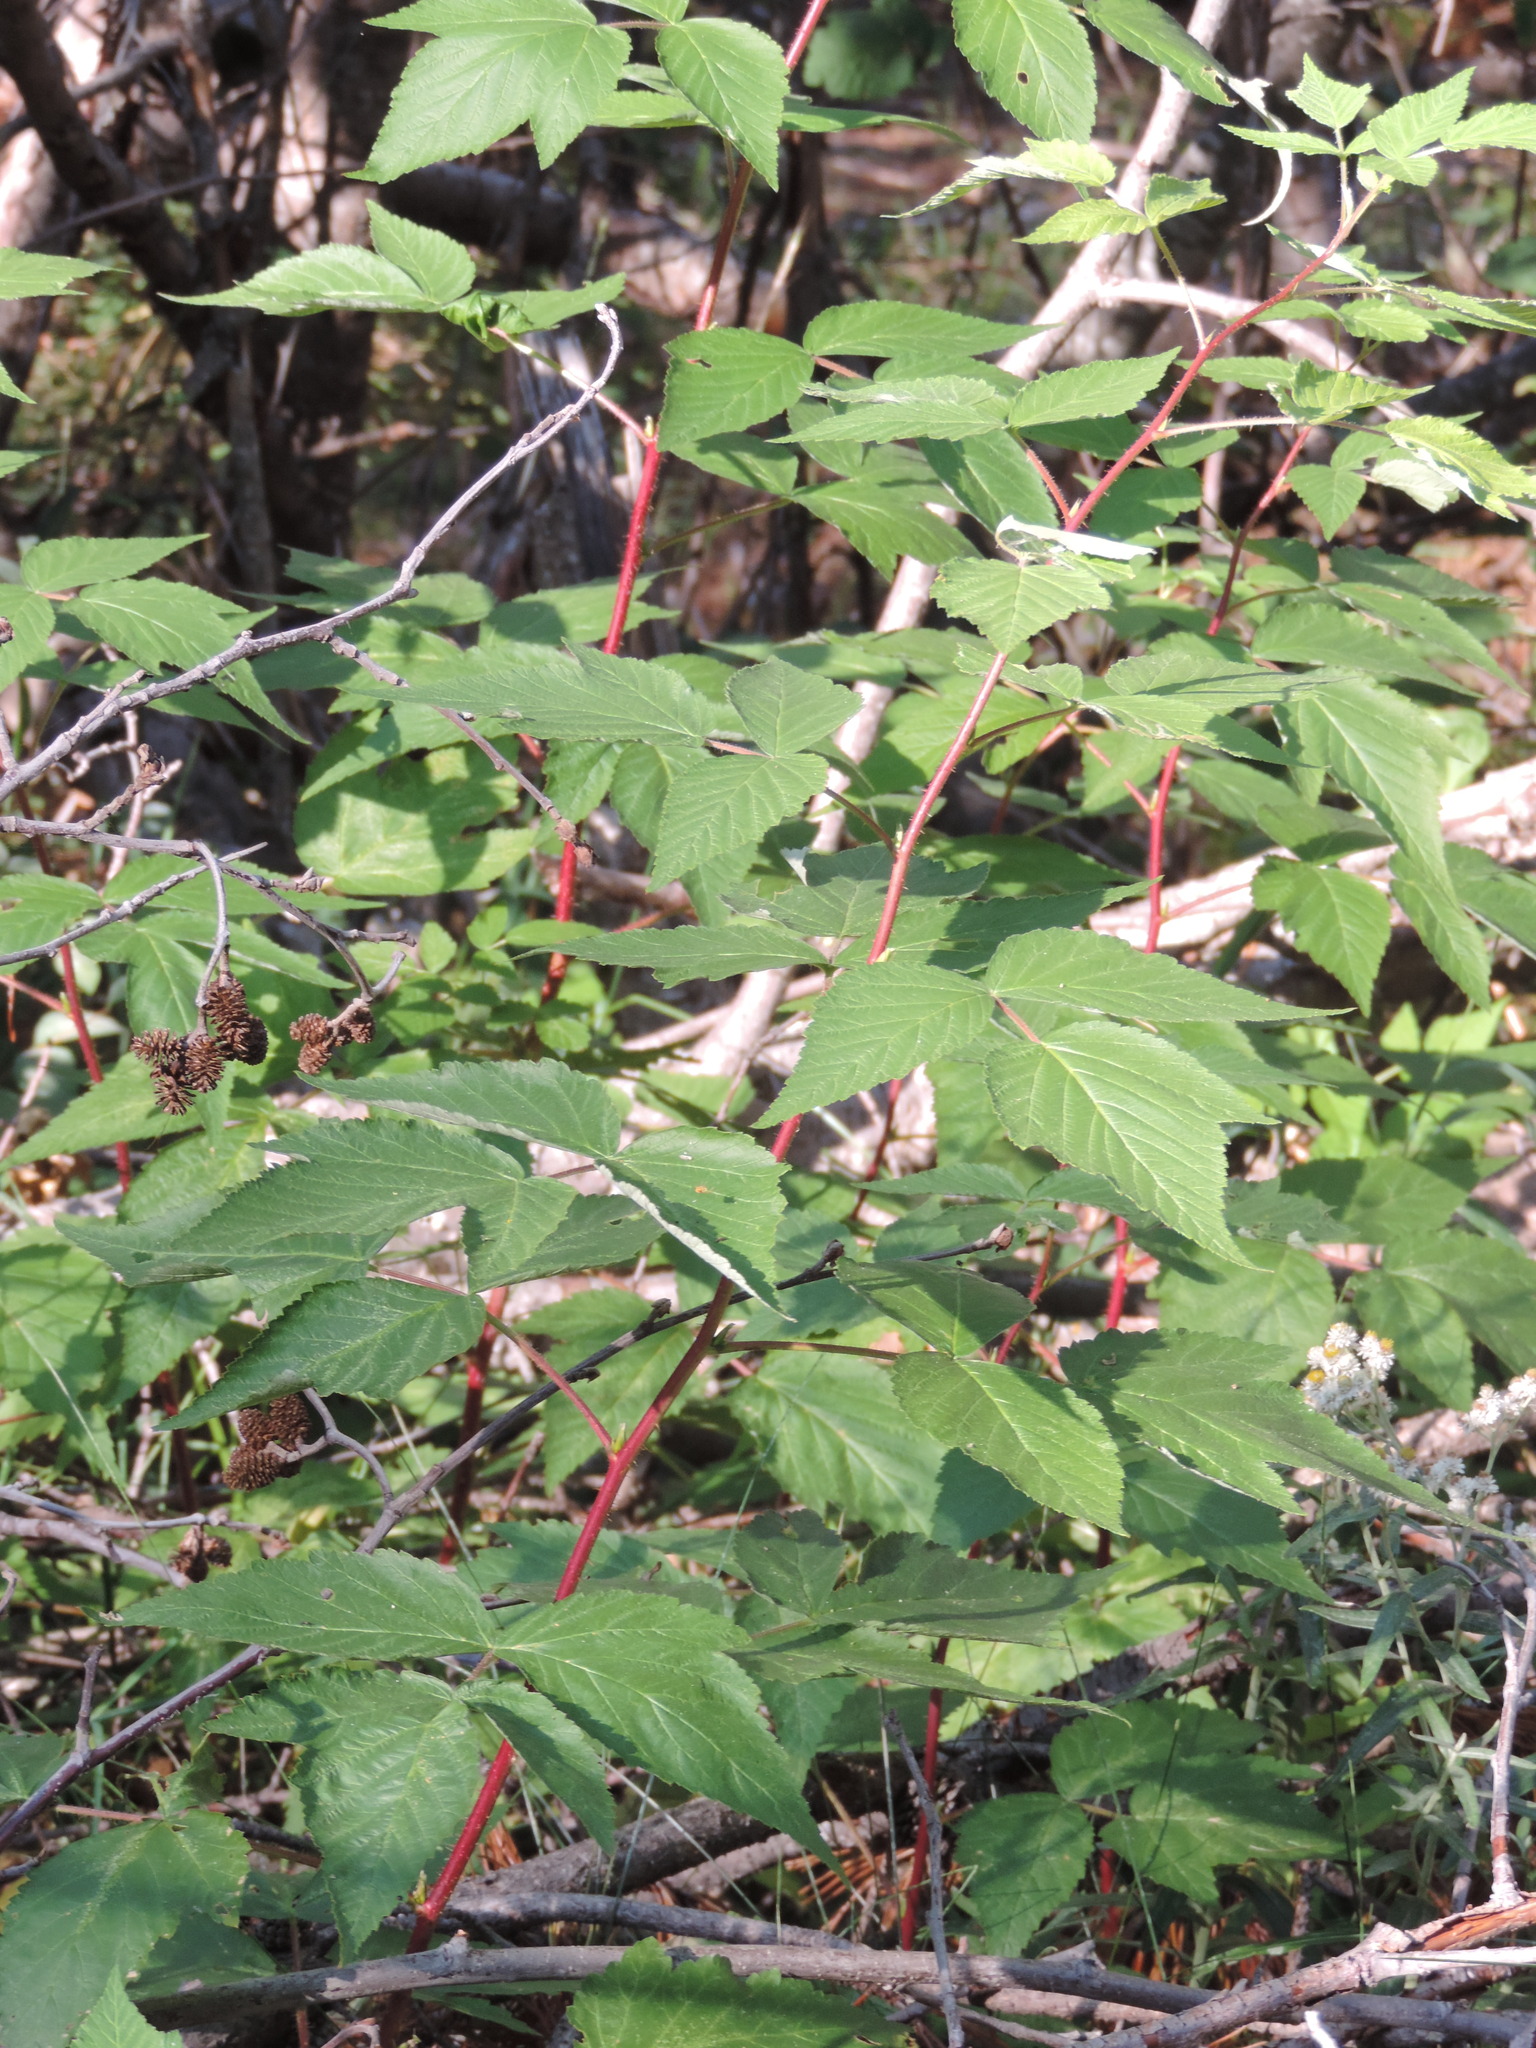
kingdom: Plantae
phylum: Tracheophyta
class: Magnoliopsida
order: Rosales
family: Rosaceae
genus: Rubus
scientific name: Rubus idaeus
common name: Raspberry
